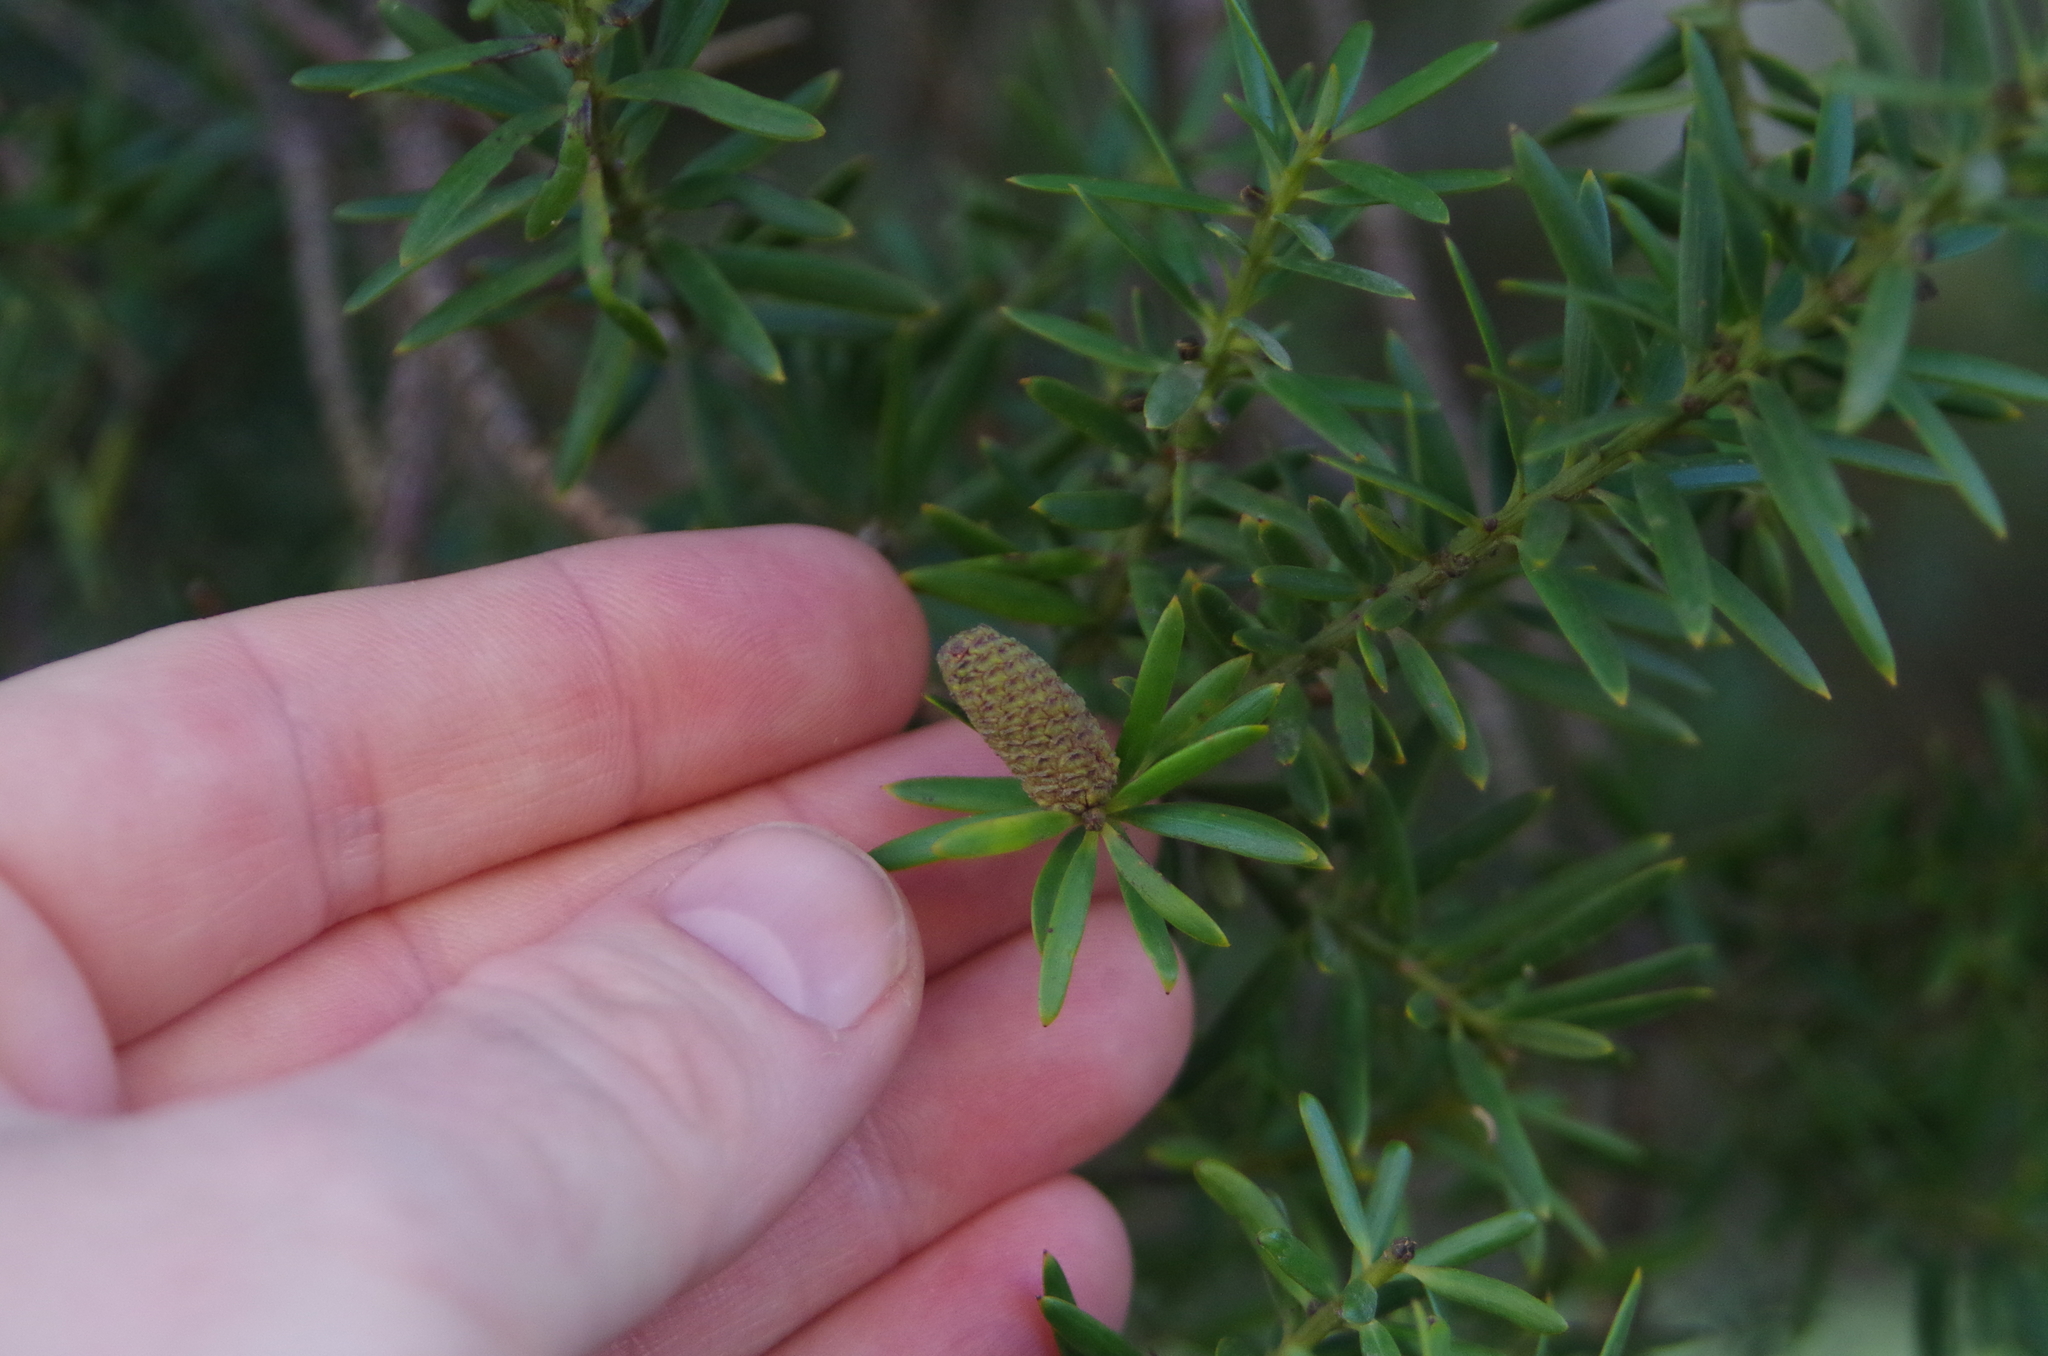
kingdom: Plantae
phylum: Tracheophyta
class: Pinopsida
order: Pinales
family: Podocarpaceae
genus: Podocarpus
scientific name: Podocarpus totara
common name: Totara
